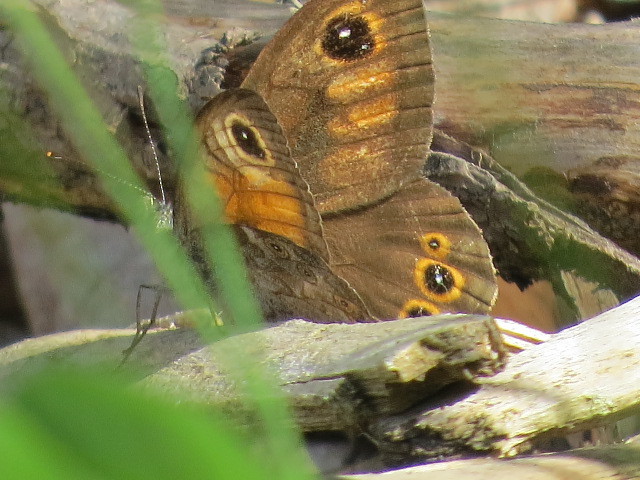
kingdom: Animalia
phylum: Arthropoda
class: Insecta
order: Lepidoptera
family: Nymphalidae
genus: Pararge
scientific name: Pararge Lasiommata maera
